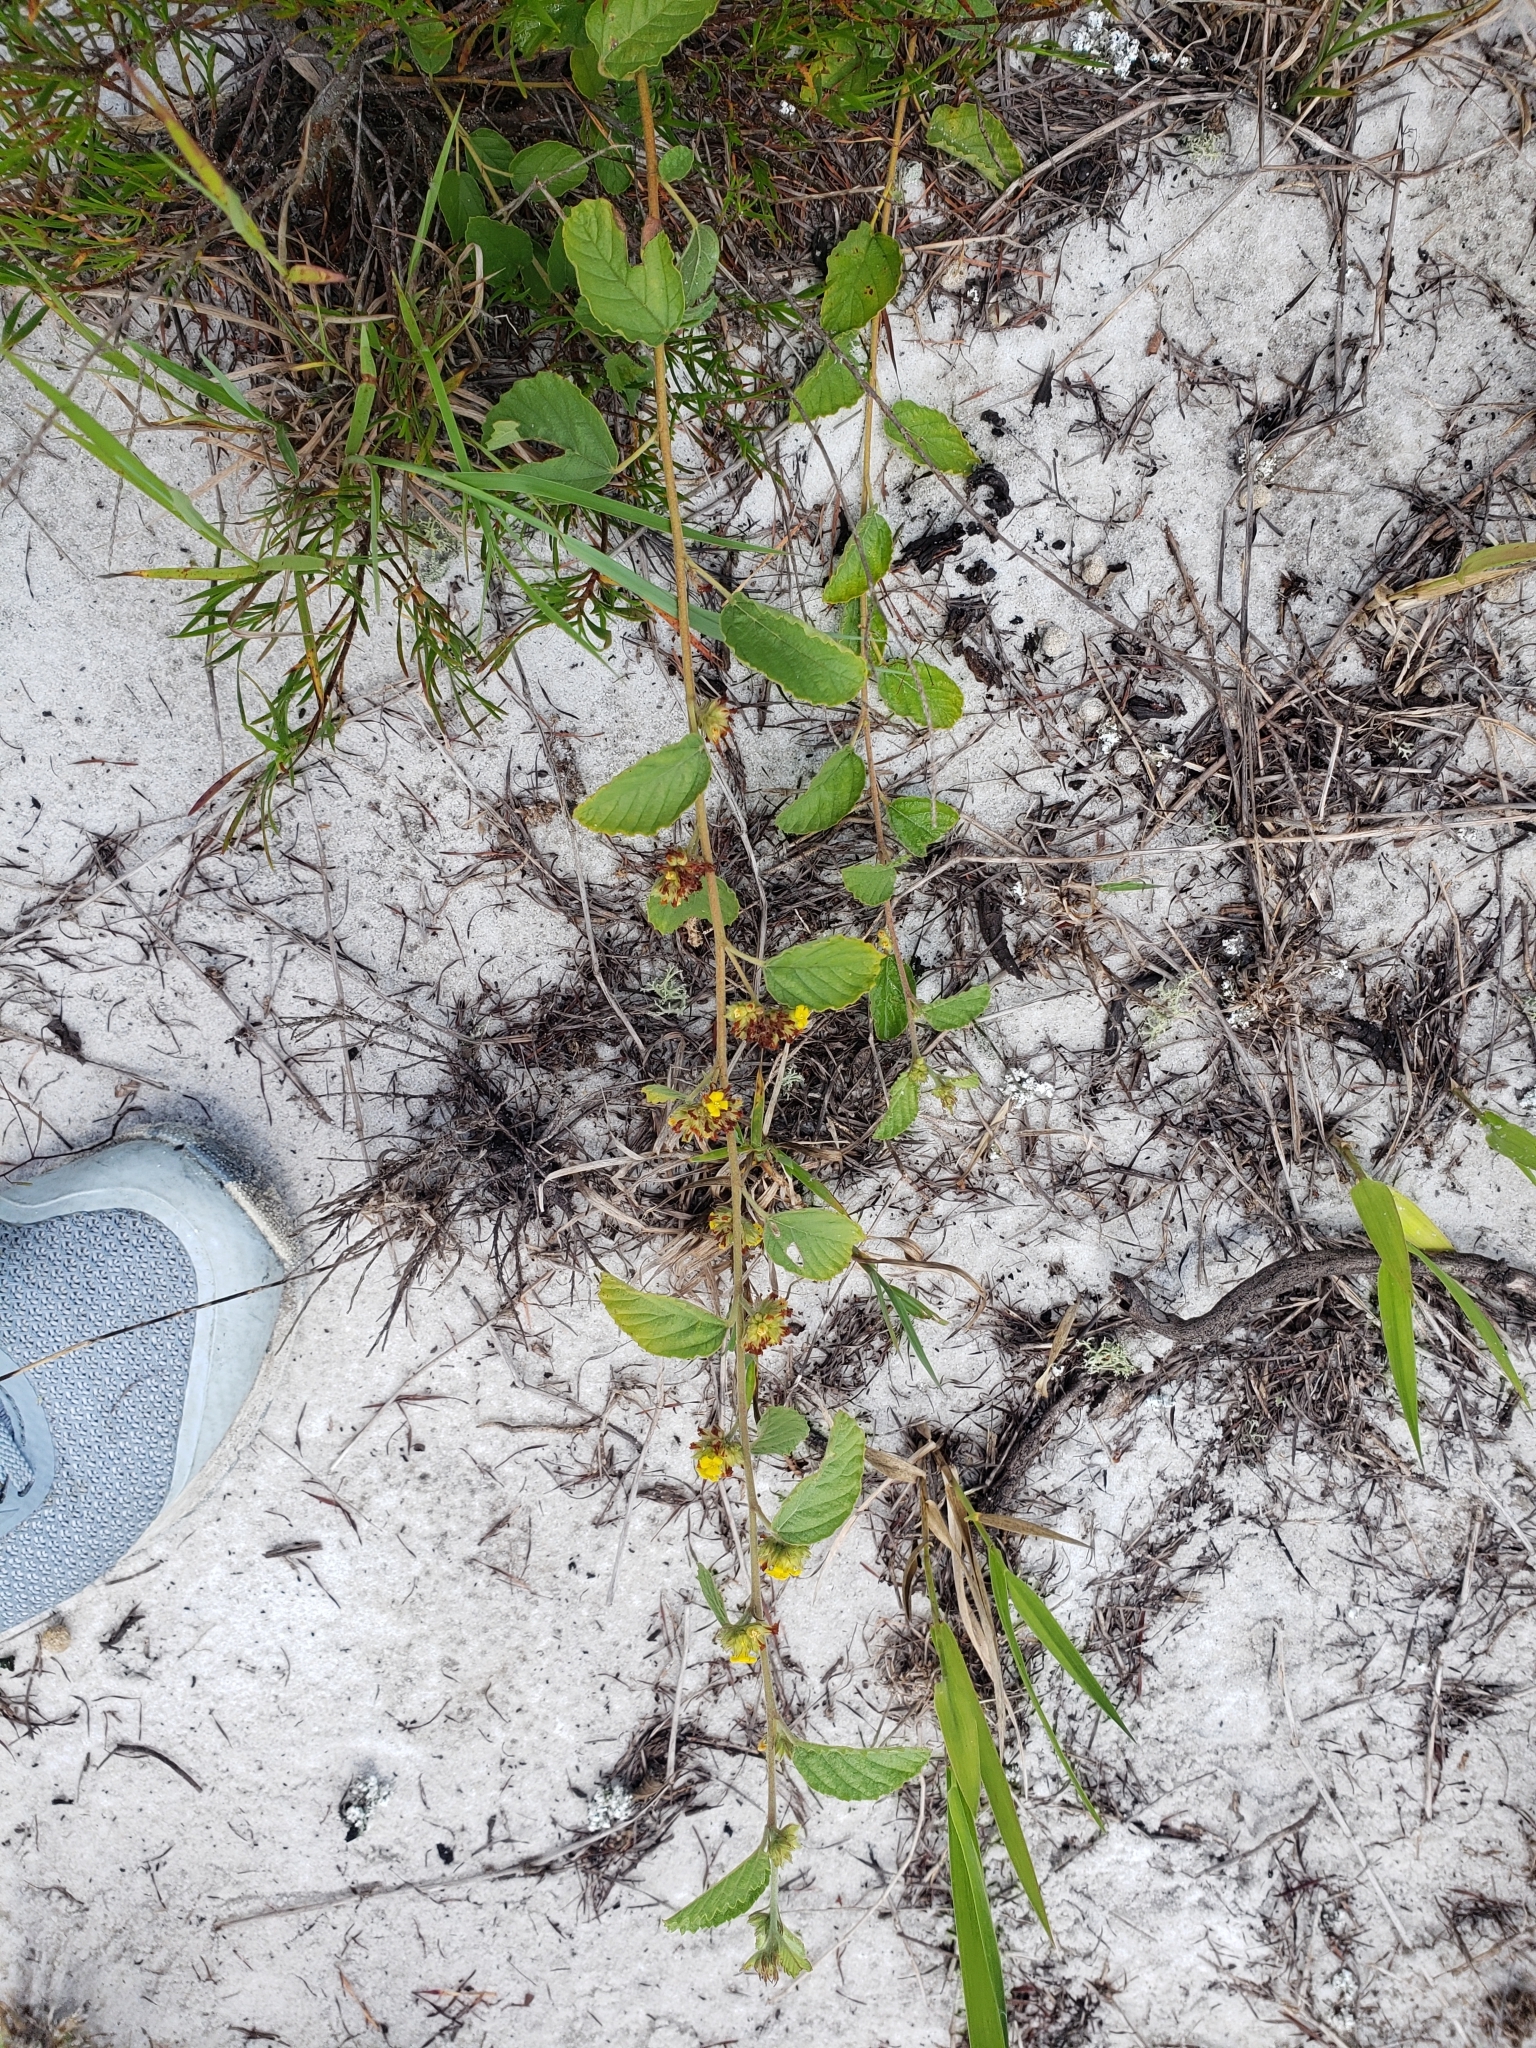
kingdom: Plantae
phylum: Tracheophyta
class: Magnoliopsida
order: Malvales
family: Malvaceae
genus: Waltheria
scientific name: Waltheria indica
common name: Leather-coat
